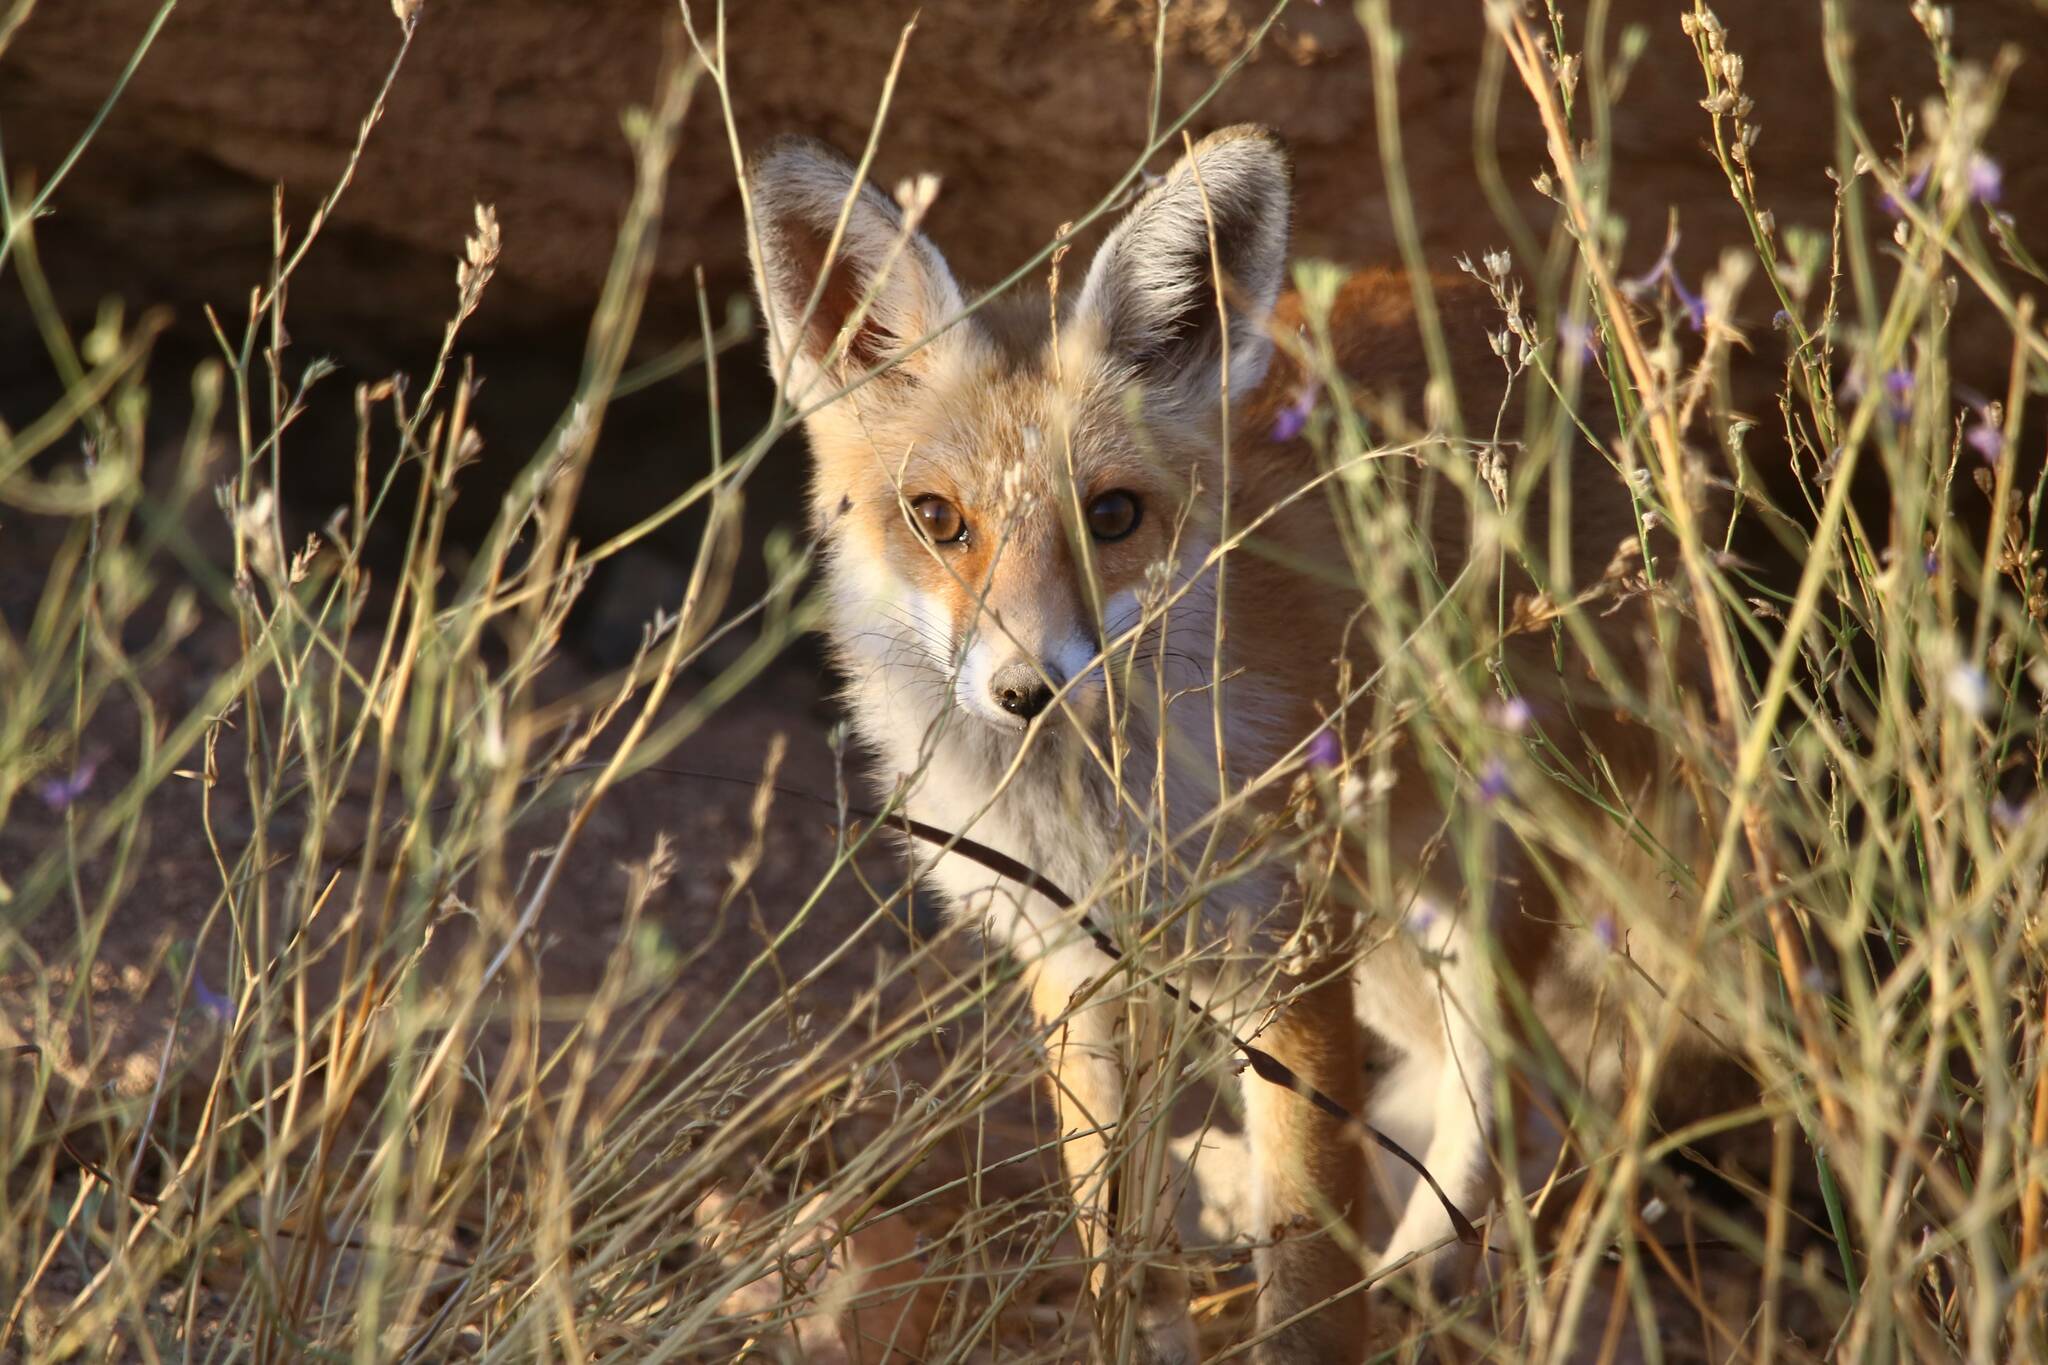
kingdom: Animalia
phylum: Chordata
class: Mammalia
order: Carnivora
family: Canidae
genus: Vulpes
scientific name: Vulpes vulpes
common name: Red fox
